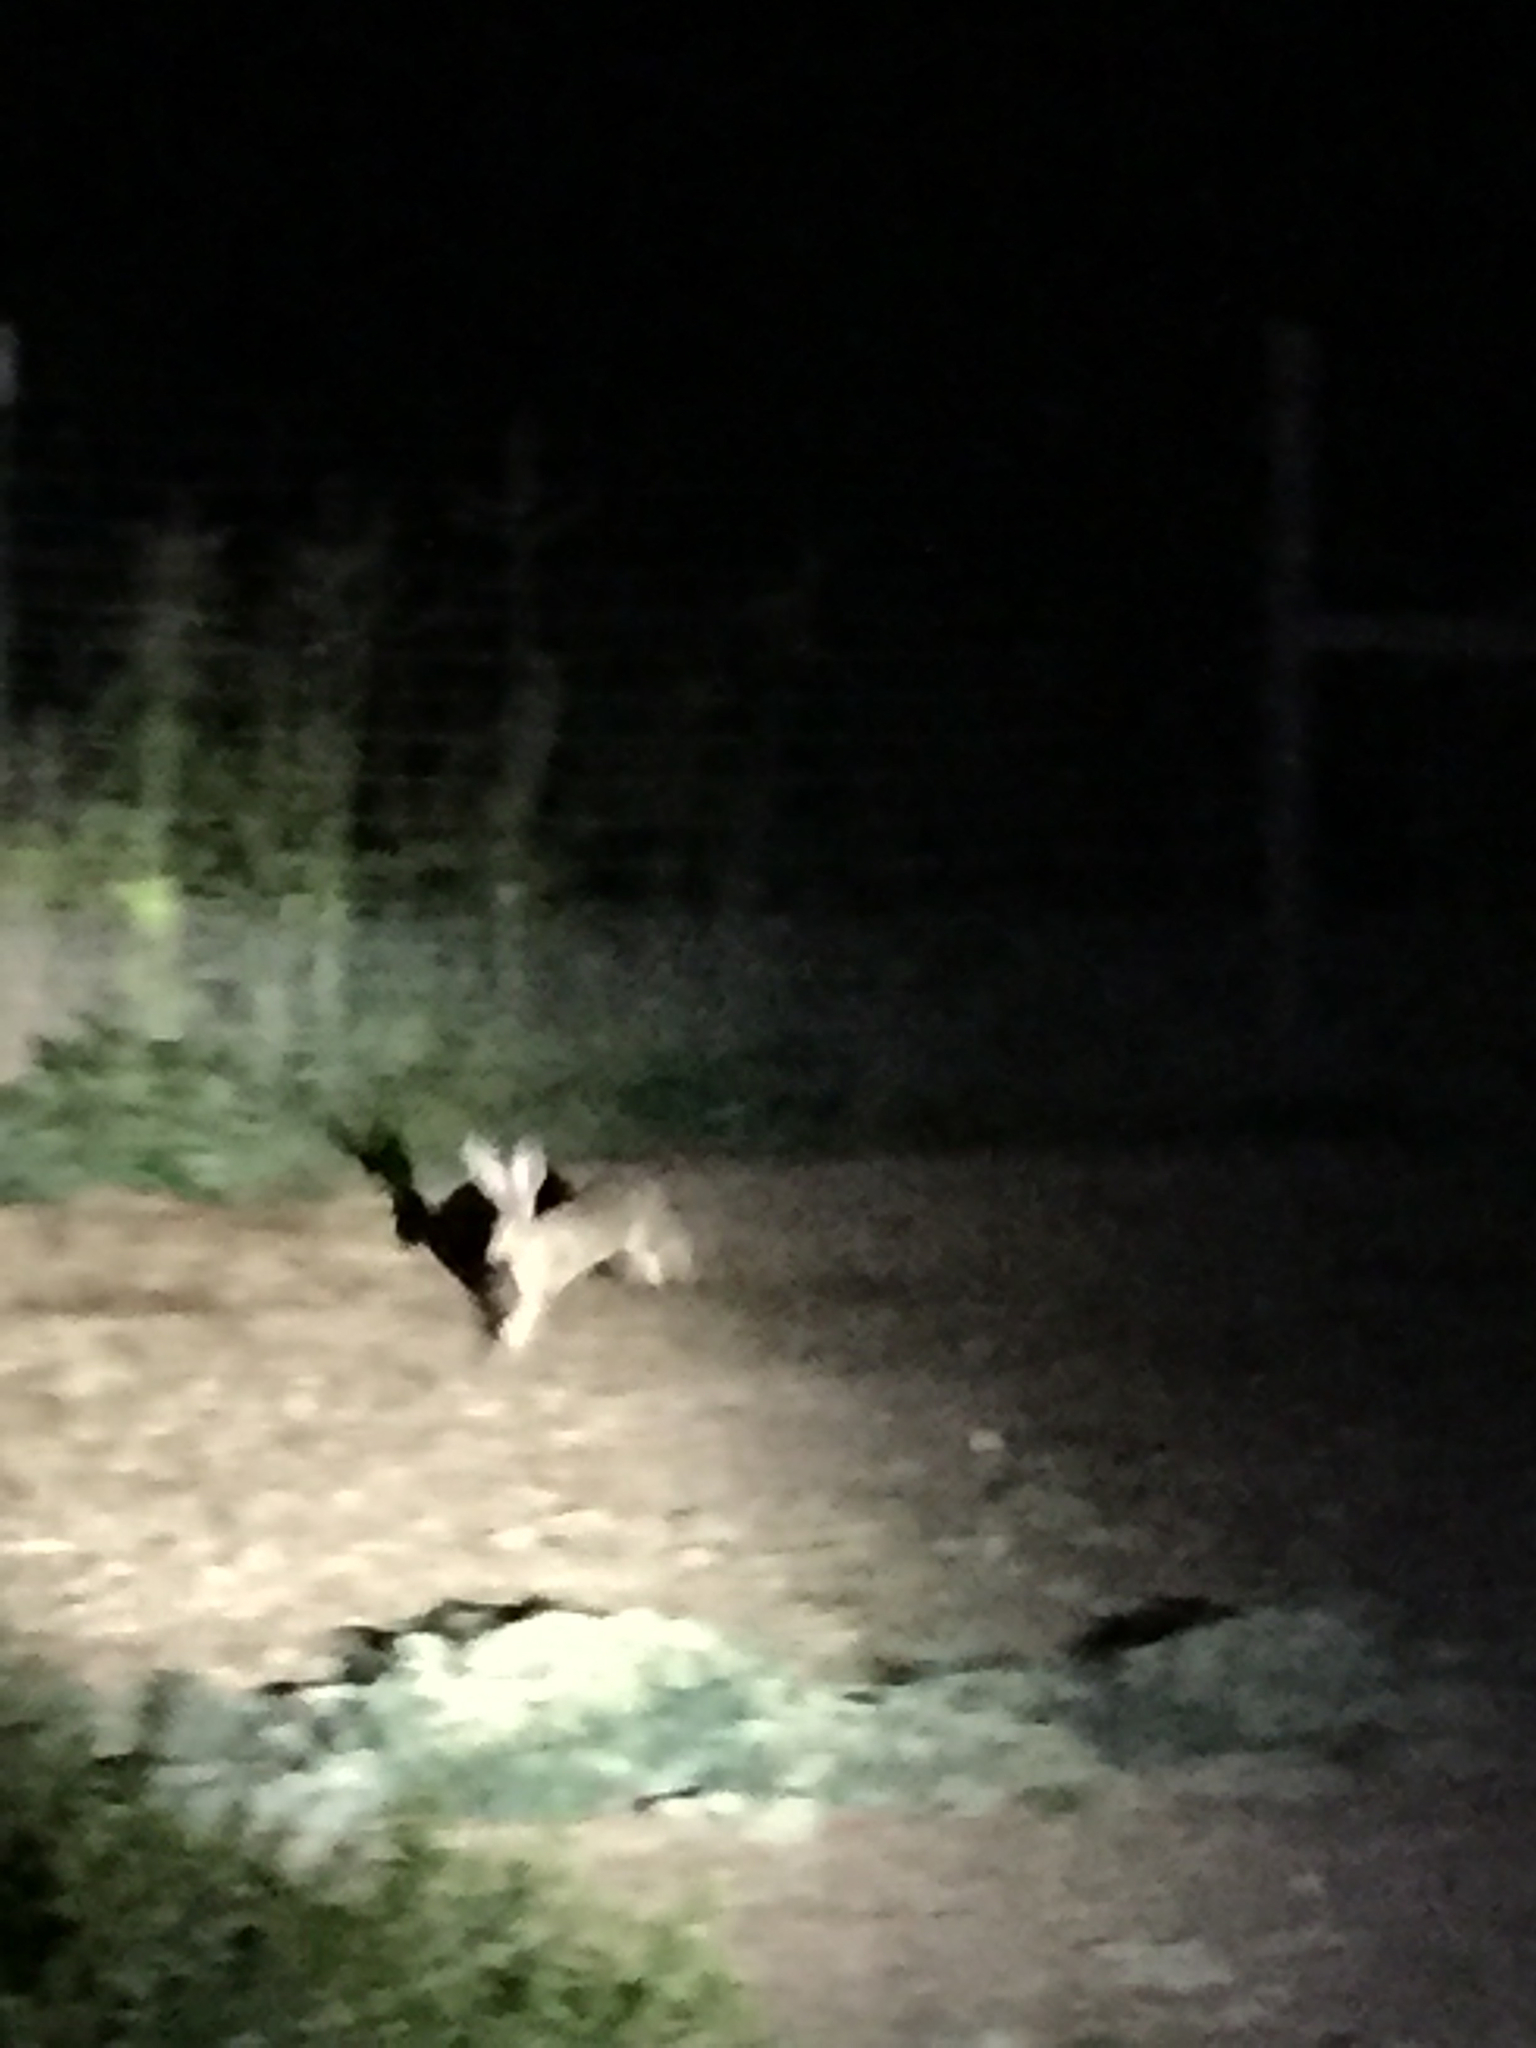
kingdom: Animalia
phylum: Chordata
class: Mammalia
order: Lagomorpha
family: Leporidae
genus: Lepus
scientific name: Lepus californicus
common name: Black-tailed jackrabbit
